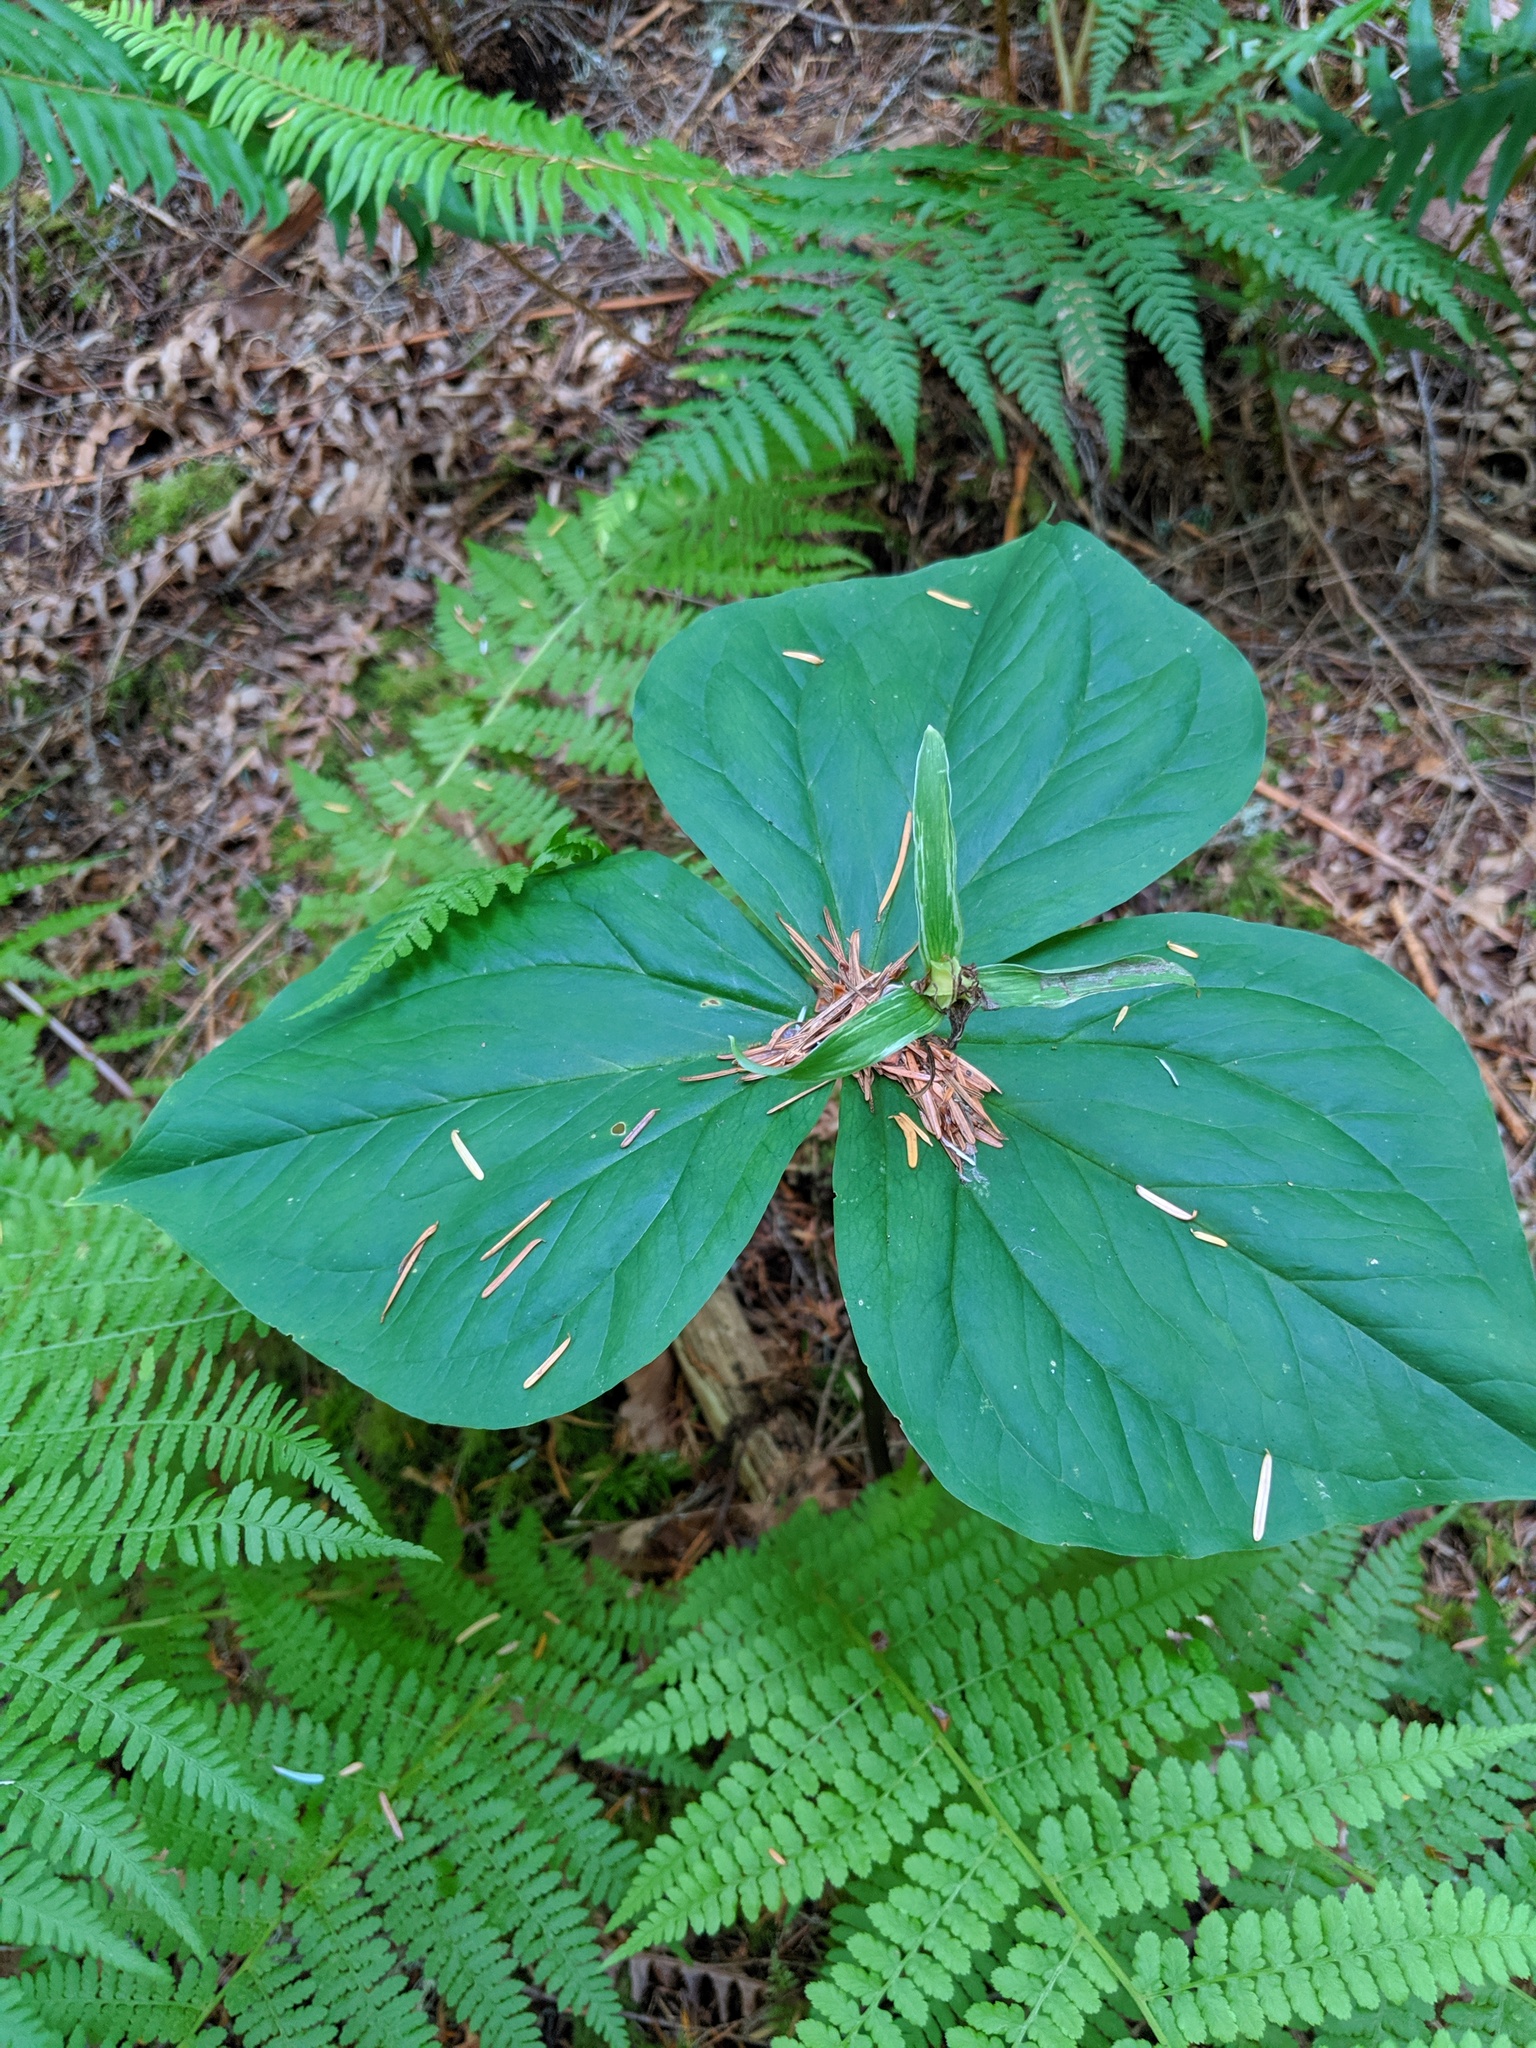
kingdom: Plantae
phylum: Tracheophyta
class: Liliopsida
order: Liliales
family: Melanthiaceae
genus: Trillium
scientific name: Trillium ovatum
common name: Pacific trillium
